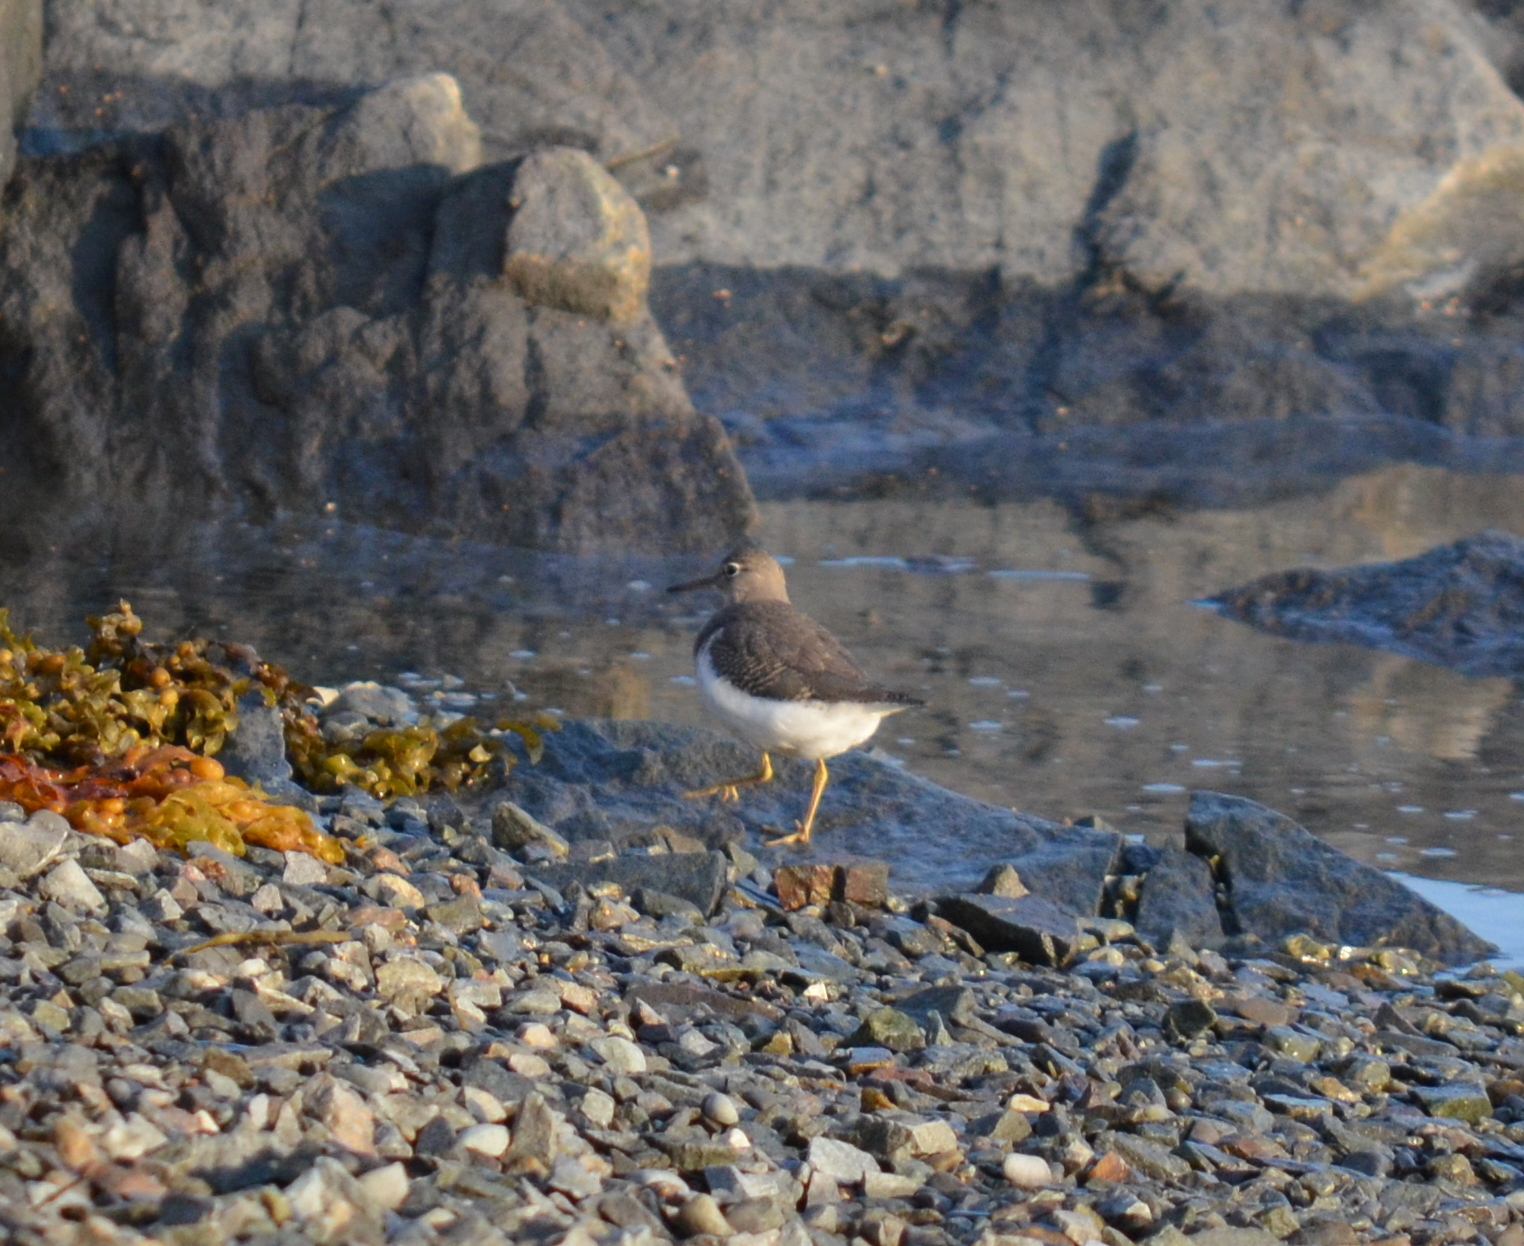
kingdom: Animalia
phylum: Chordata
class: Aves
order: Charadriiformes
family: Scolopacidae
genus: Actitis
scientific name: Actitis macularius
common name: Spotted sandpiper
